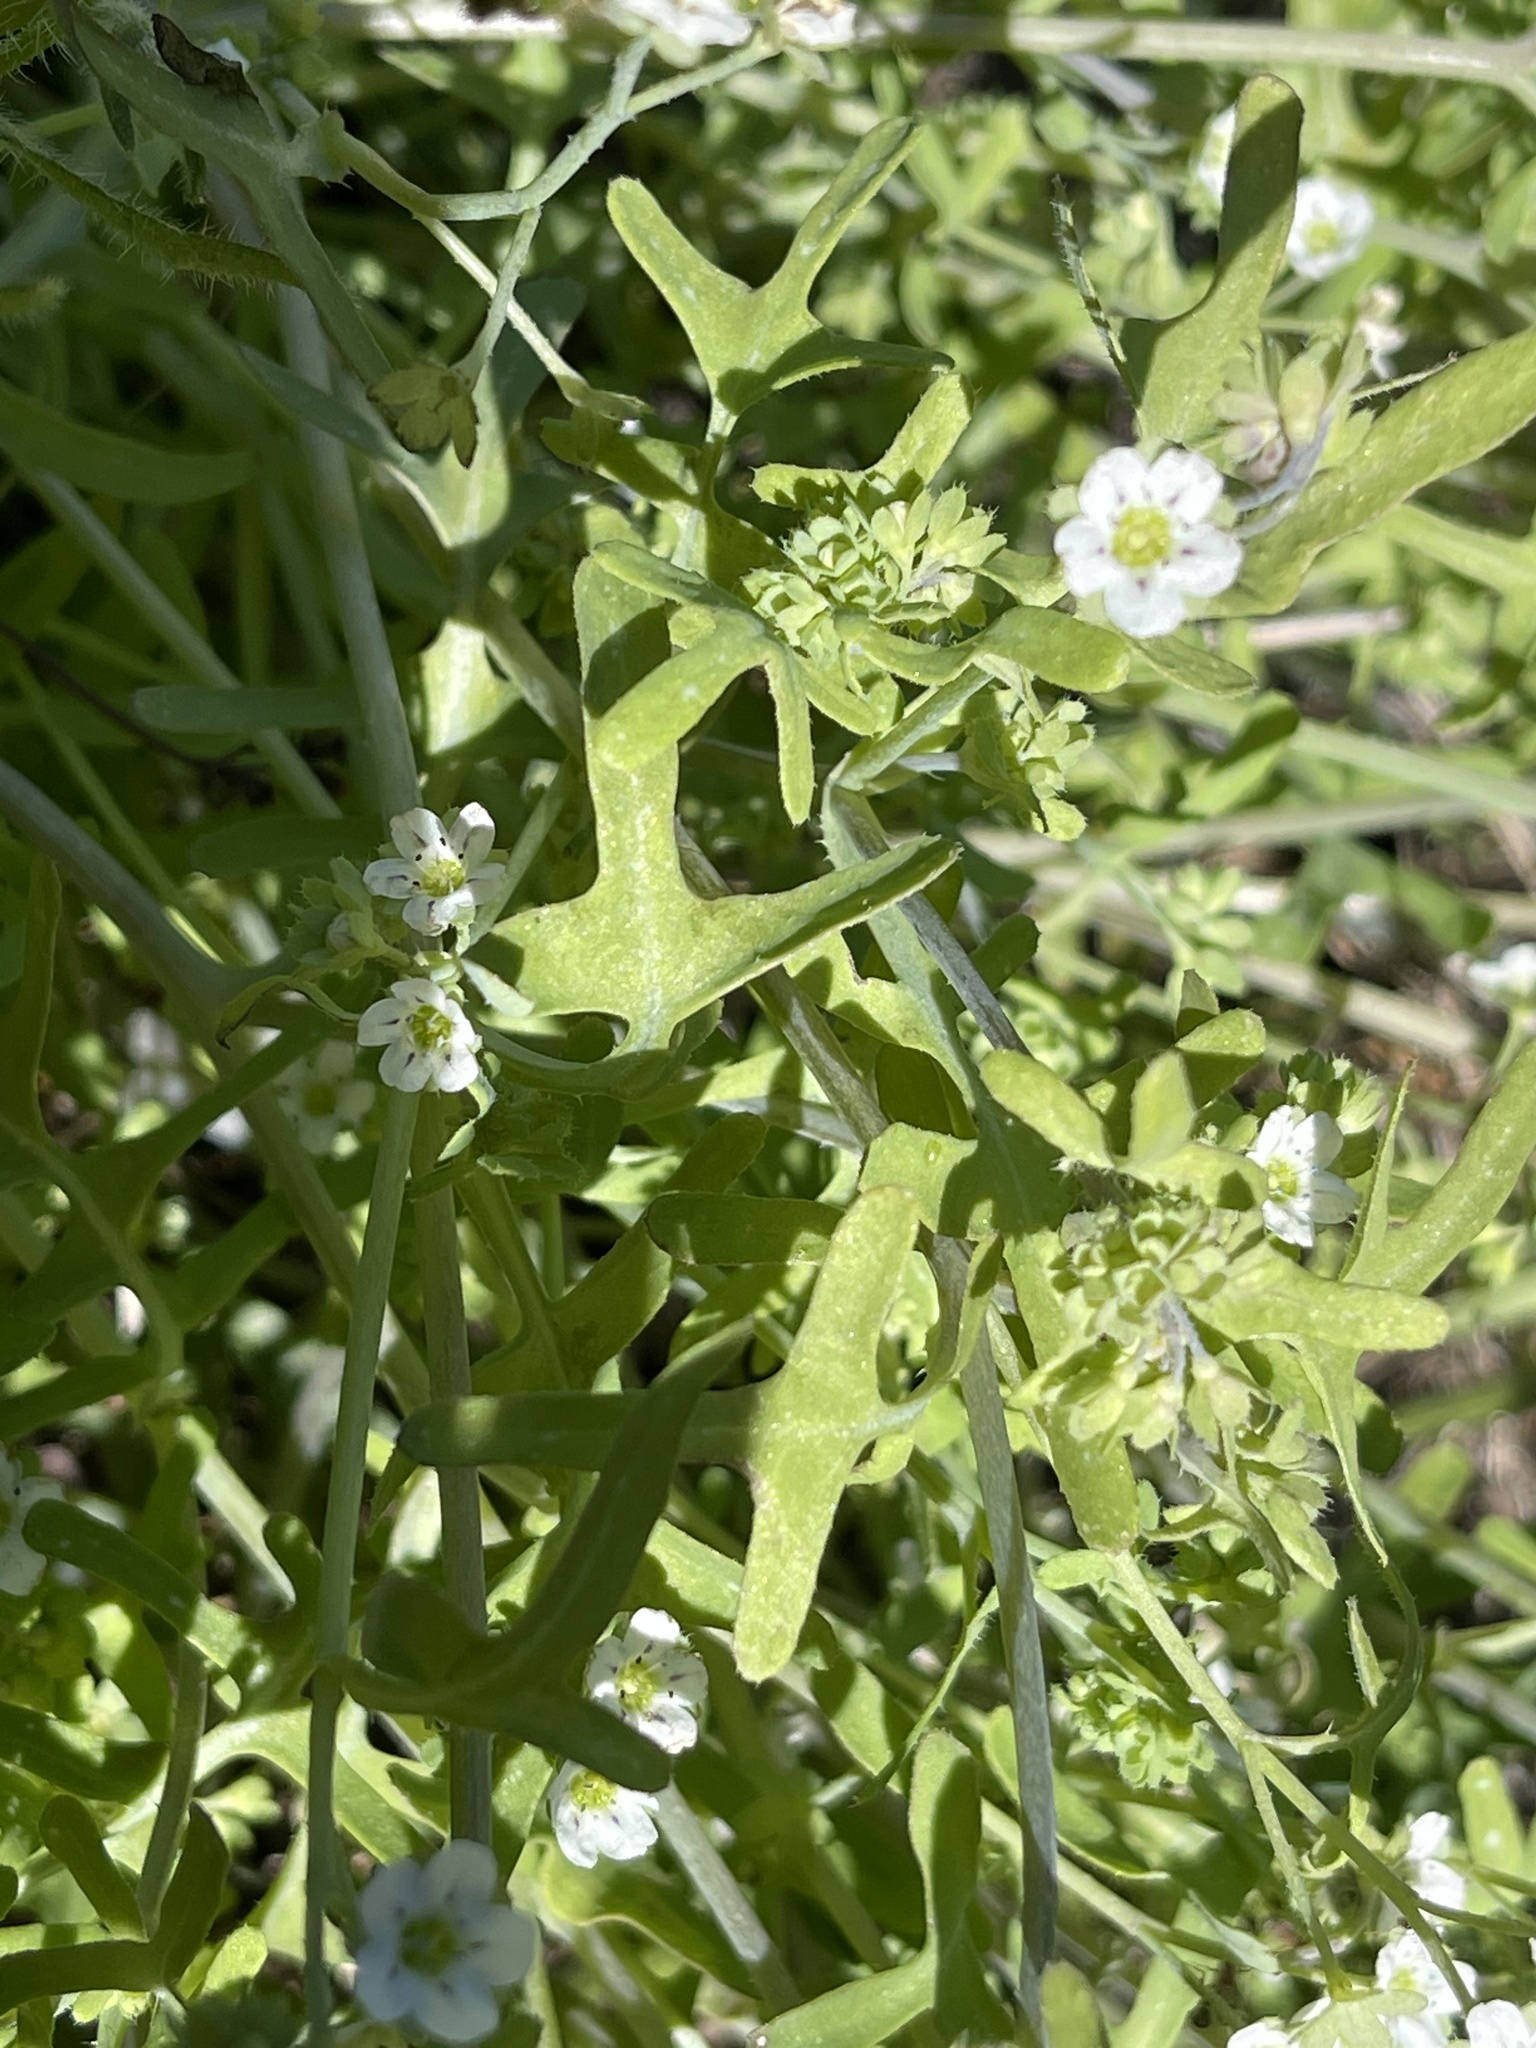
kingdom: Plantae
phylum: Tracheophyta
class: Magnoliopsida
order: Boraginales
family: Hydrophyllaceae
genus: Pholistoma
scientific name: Pholistoma membranaceum
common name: White fiesta-flower
